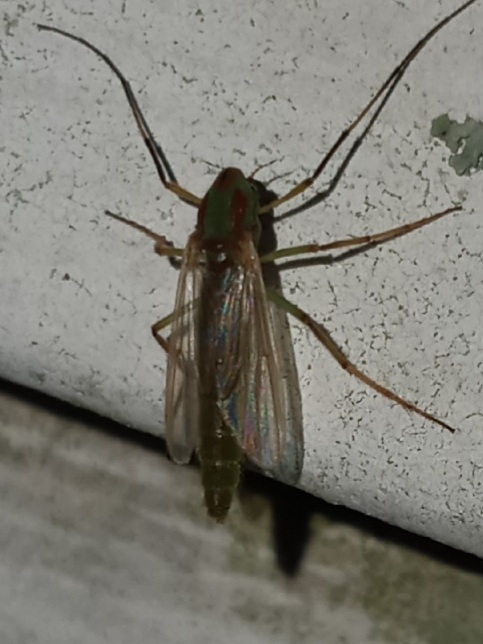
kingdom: Animalia
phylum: Arthropoda
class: Insecta
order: Diptera
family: Chironomidae
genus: Axarus
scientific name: Axarus
